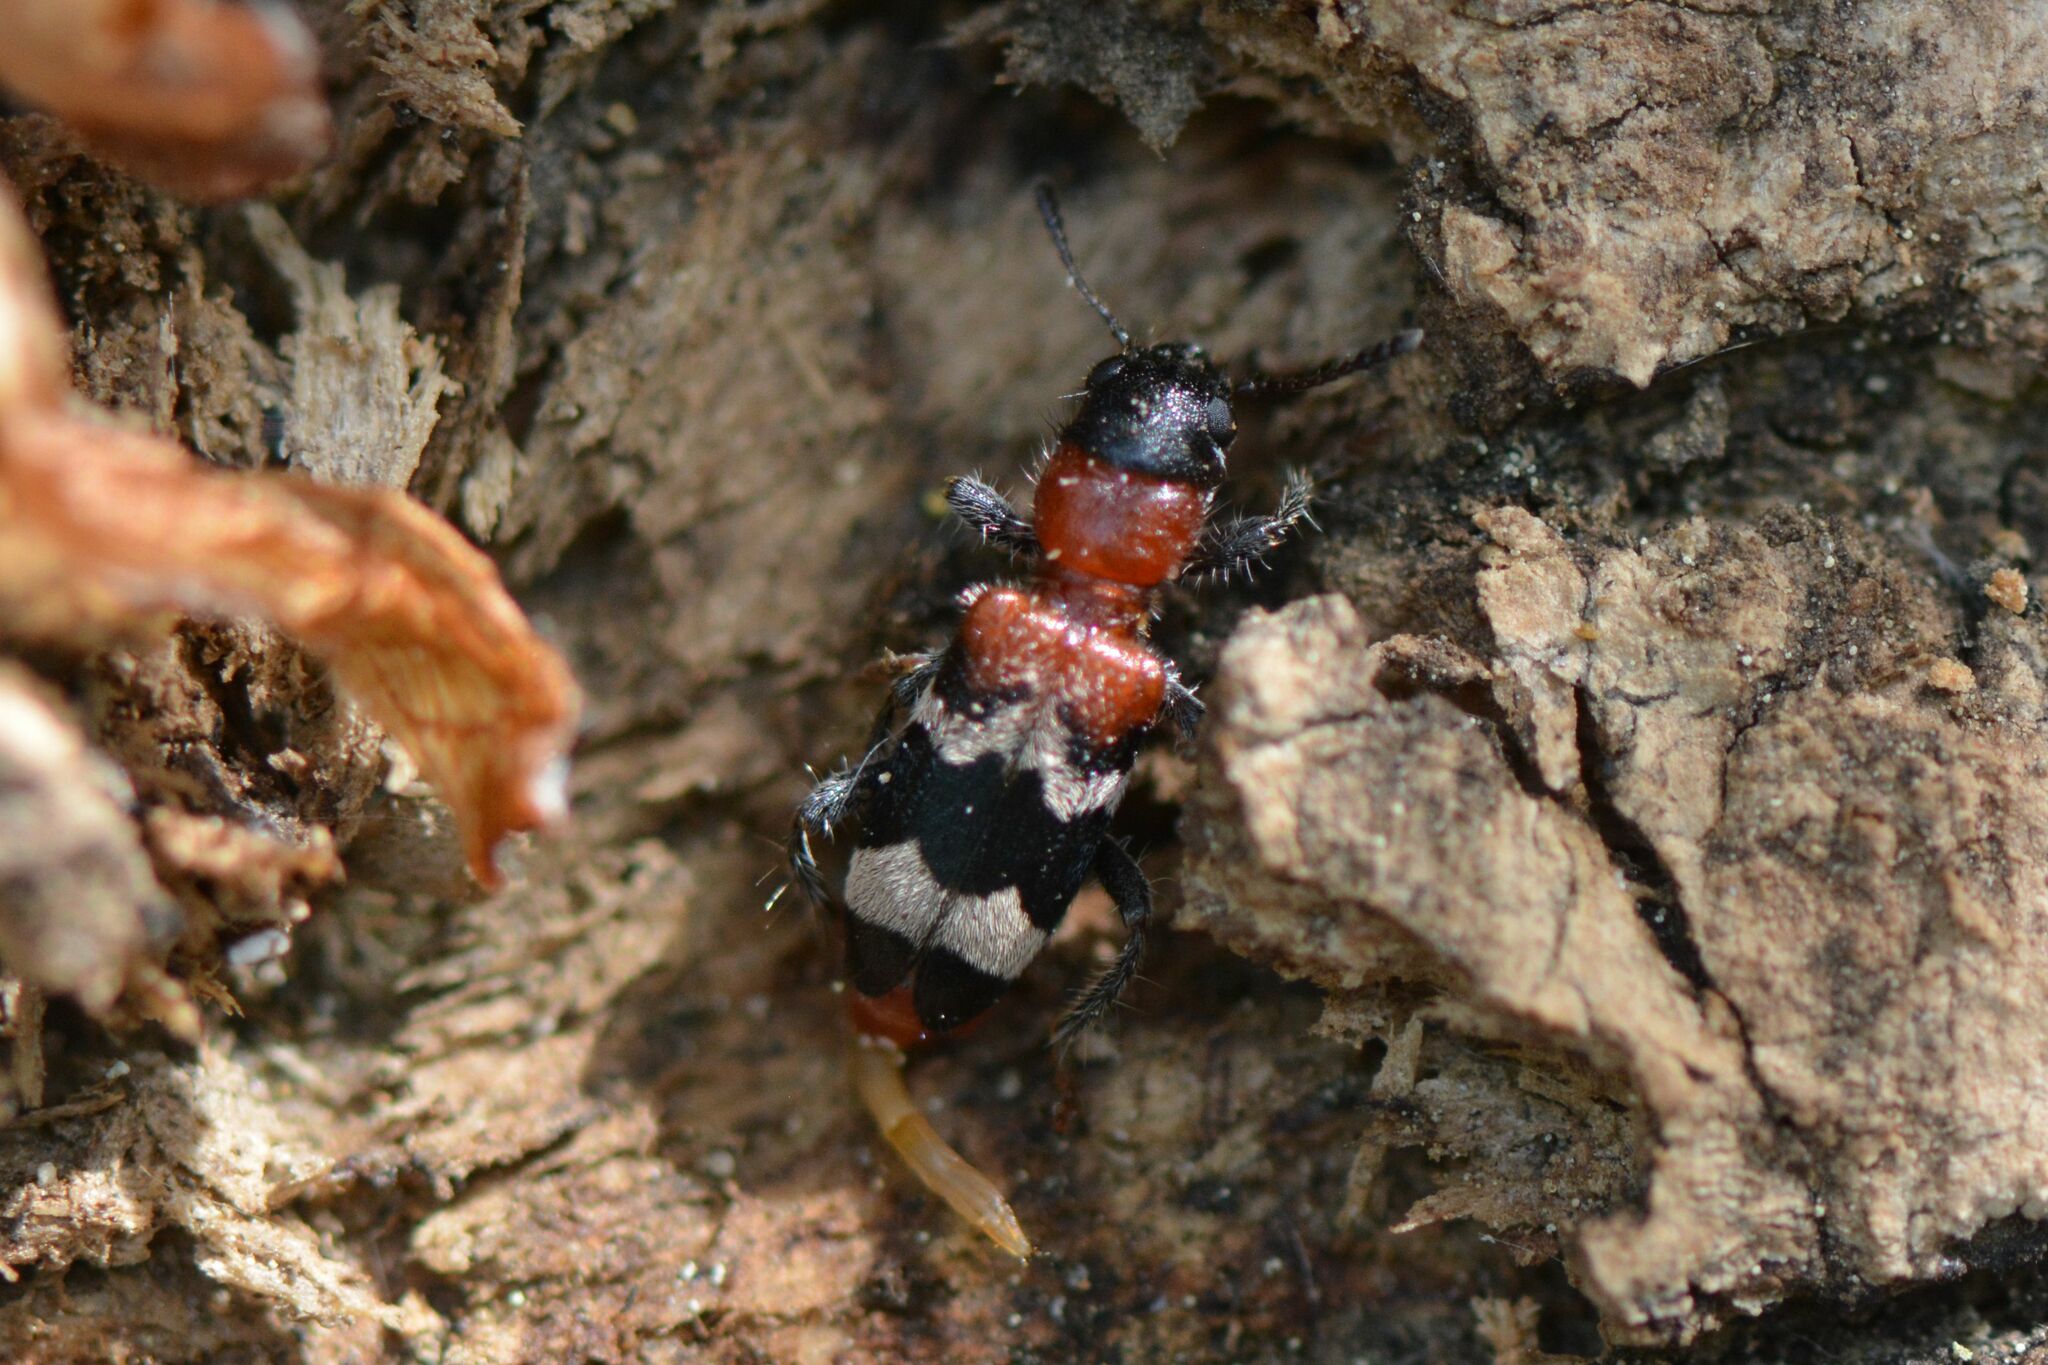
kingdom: Animalia
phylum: Arthropoda
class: Insecta
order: Coleoptera
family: Cleridae
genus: Thanasimus
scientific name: Thanasimus formicarius
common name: Ant beetle
